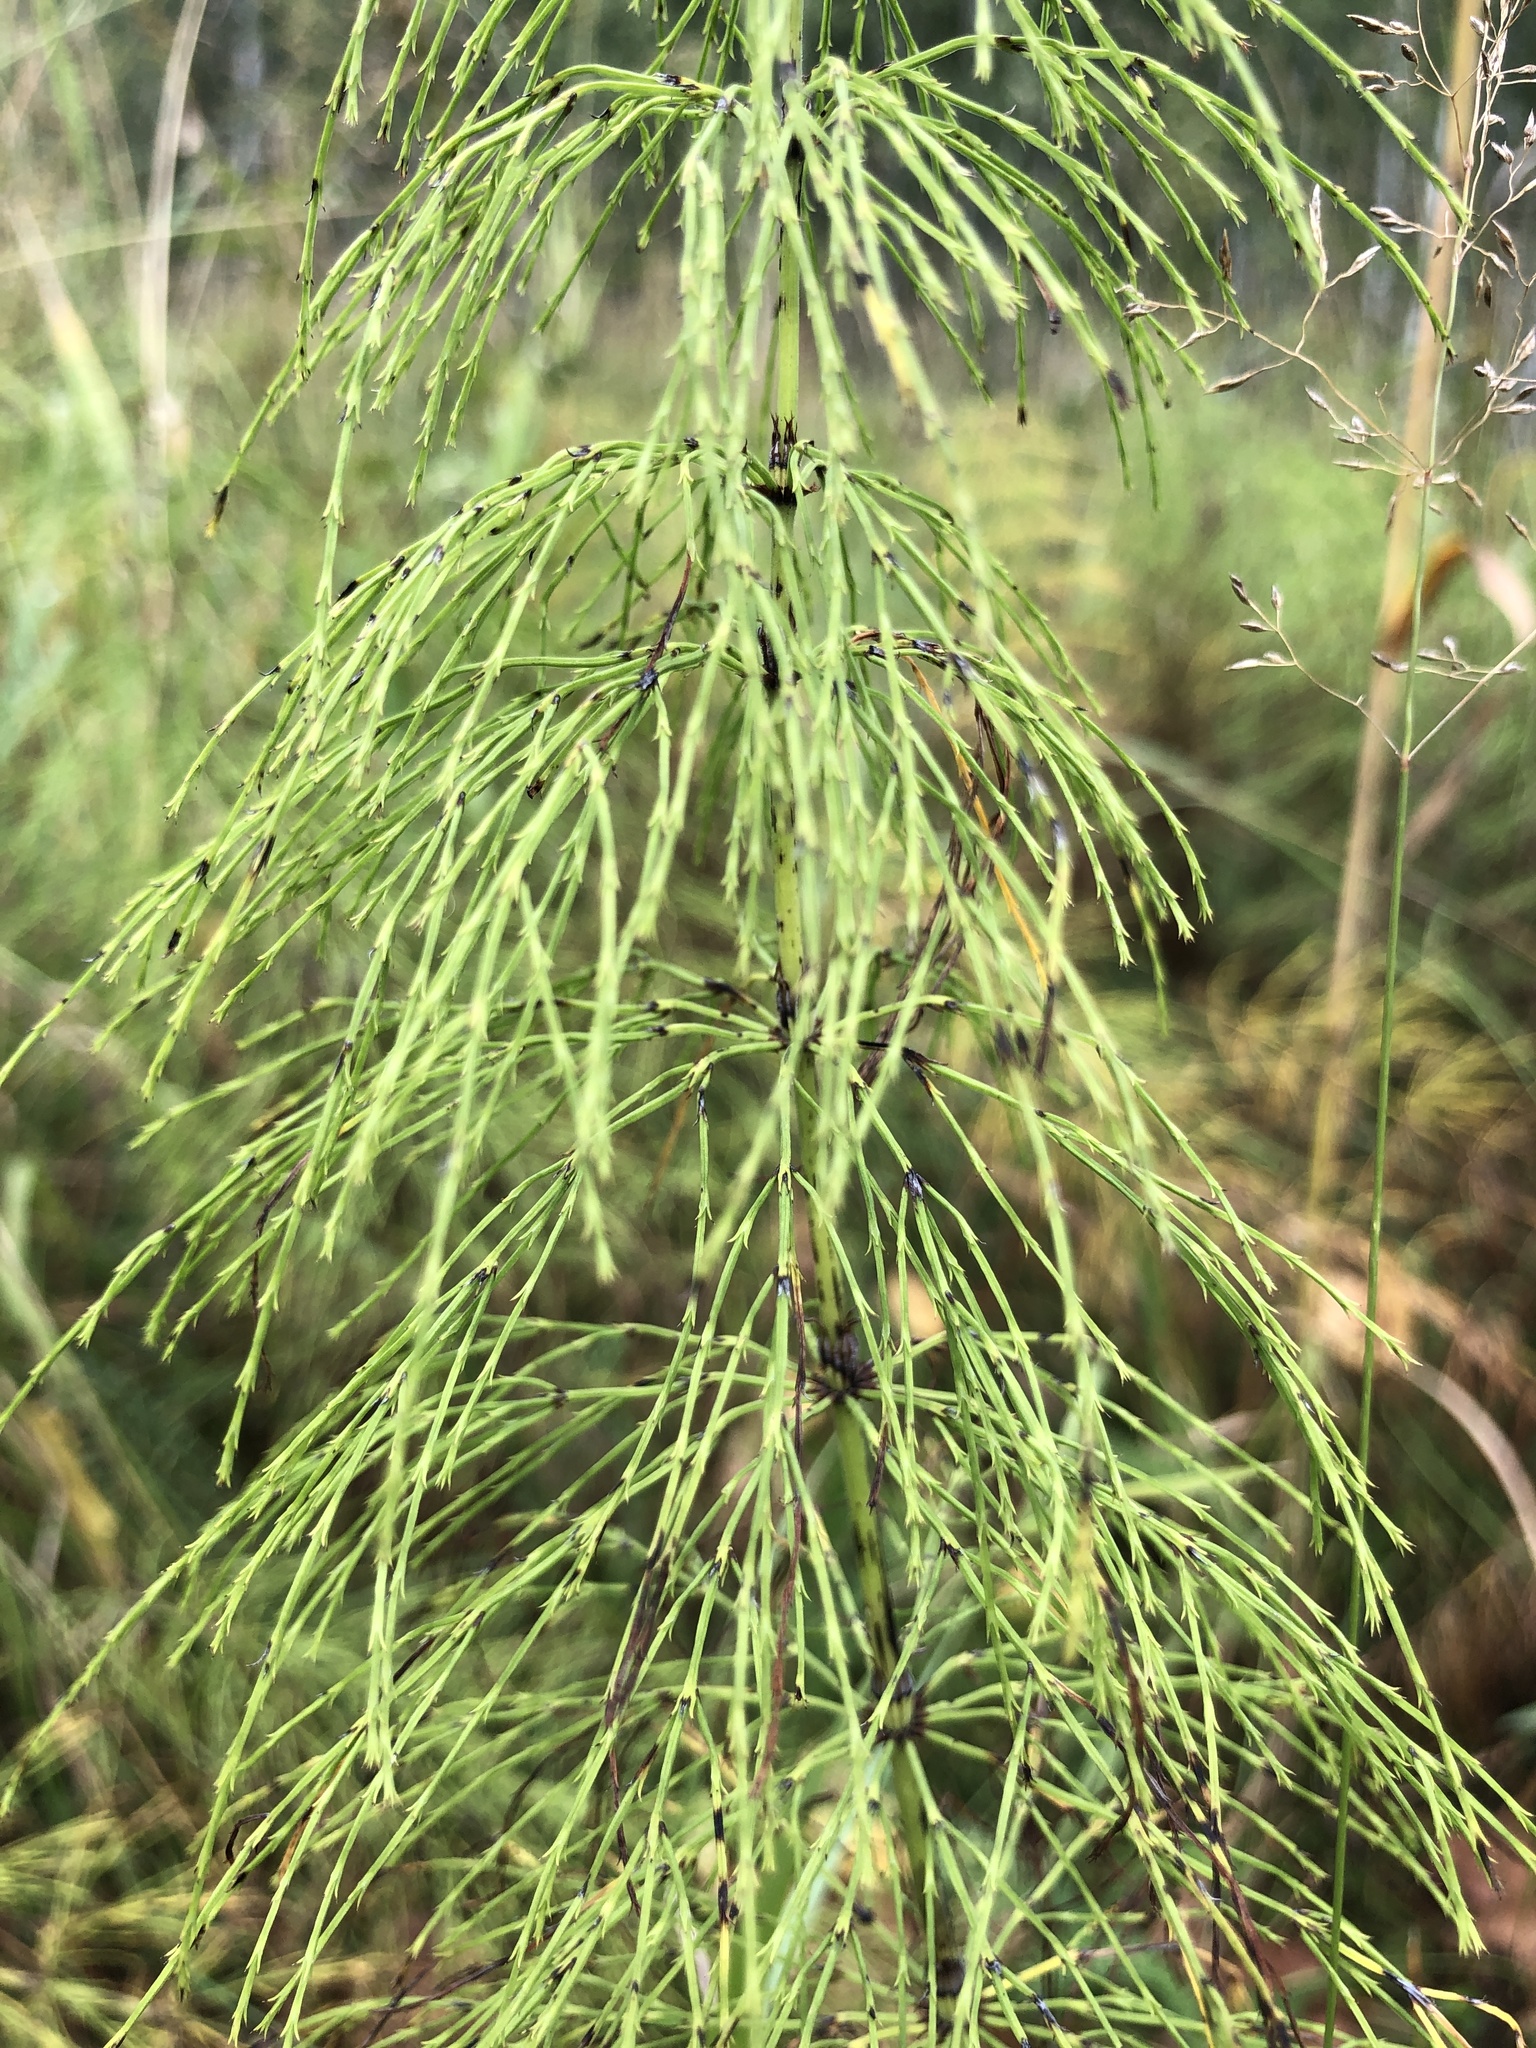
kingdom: Plantae
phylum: Tracheophyta
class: Polypodiopsida
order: Equisetales
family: Equisetaceae
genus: Equisetum
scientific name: Equisetum sylvaticum
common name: Wood horsetail
